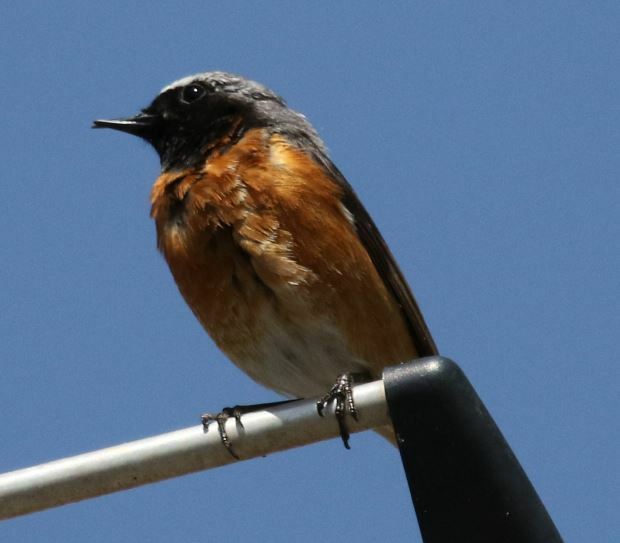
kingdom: Animalia
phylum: Chordata
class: Aves
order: Passeriformes
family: Muscicapidae
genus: Phoenicurus
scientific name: Phoenicurus phoenicurus
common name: Common redstart
